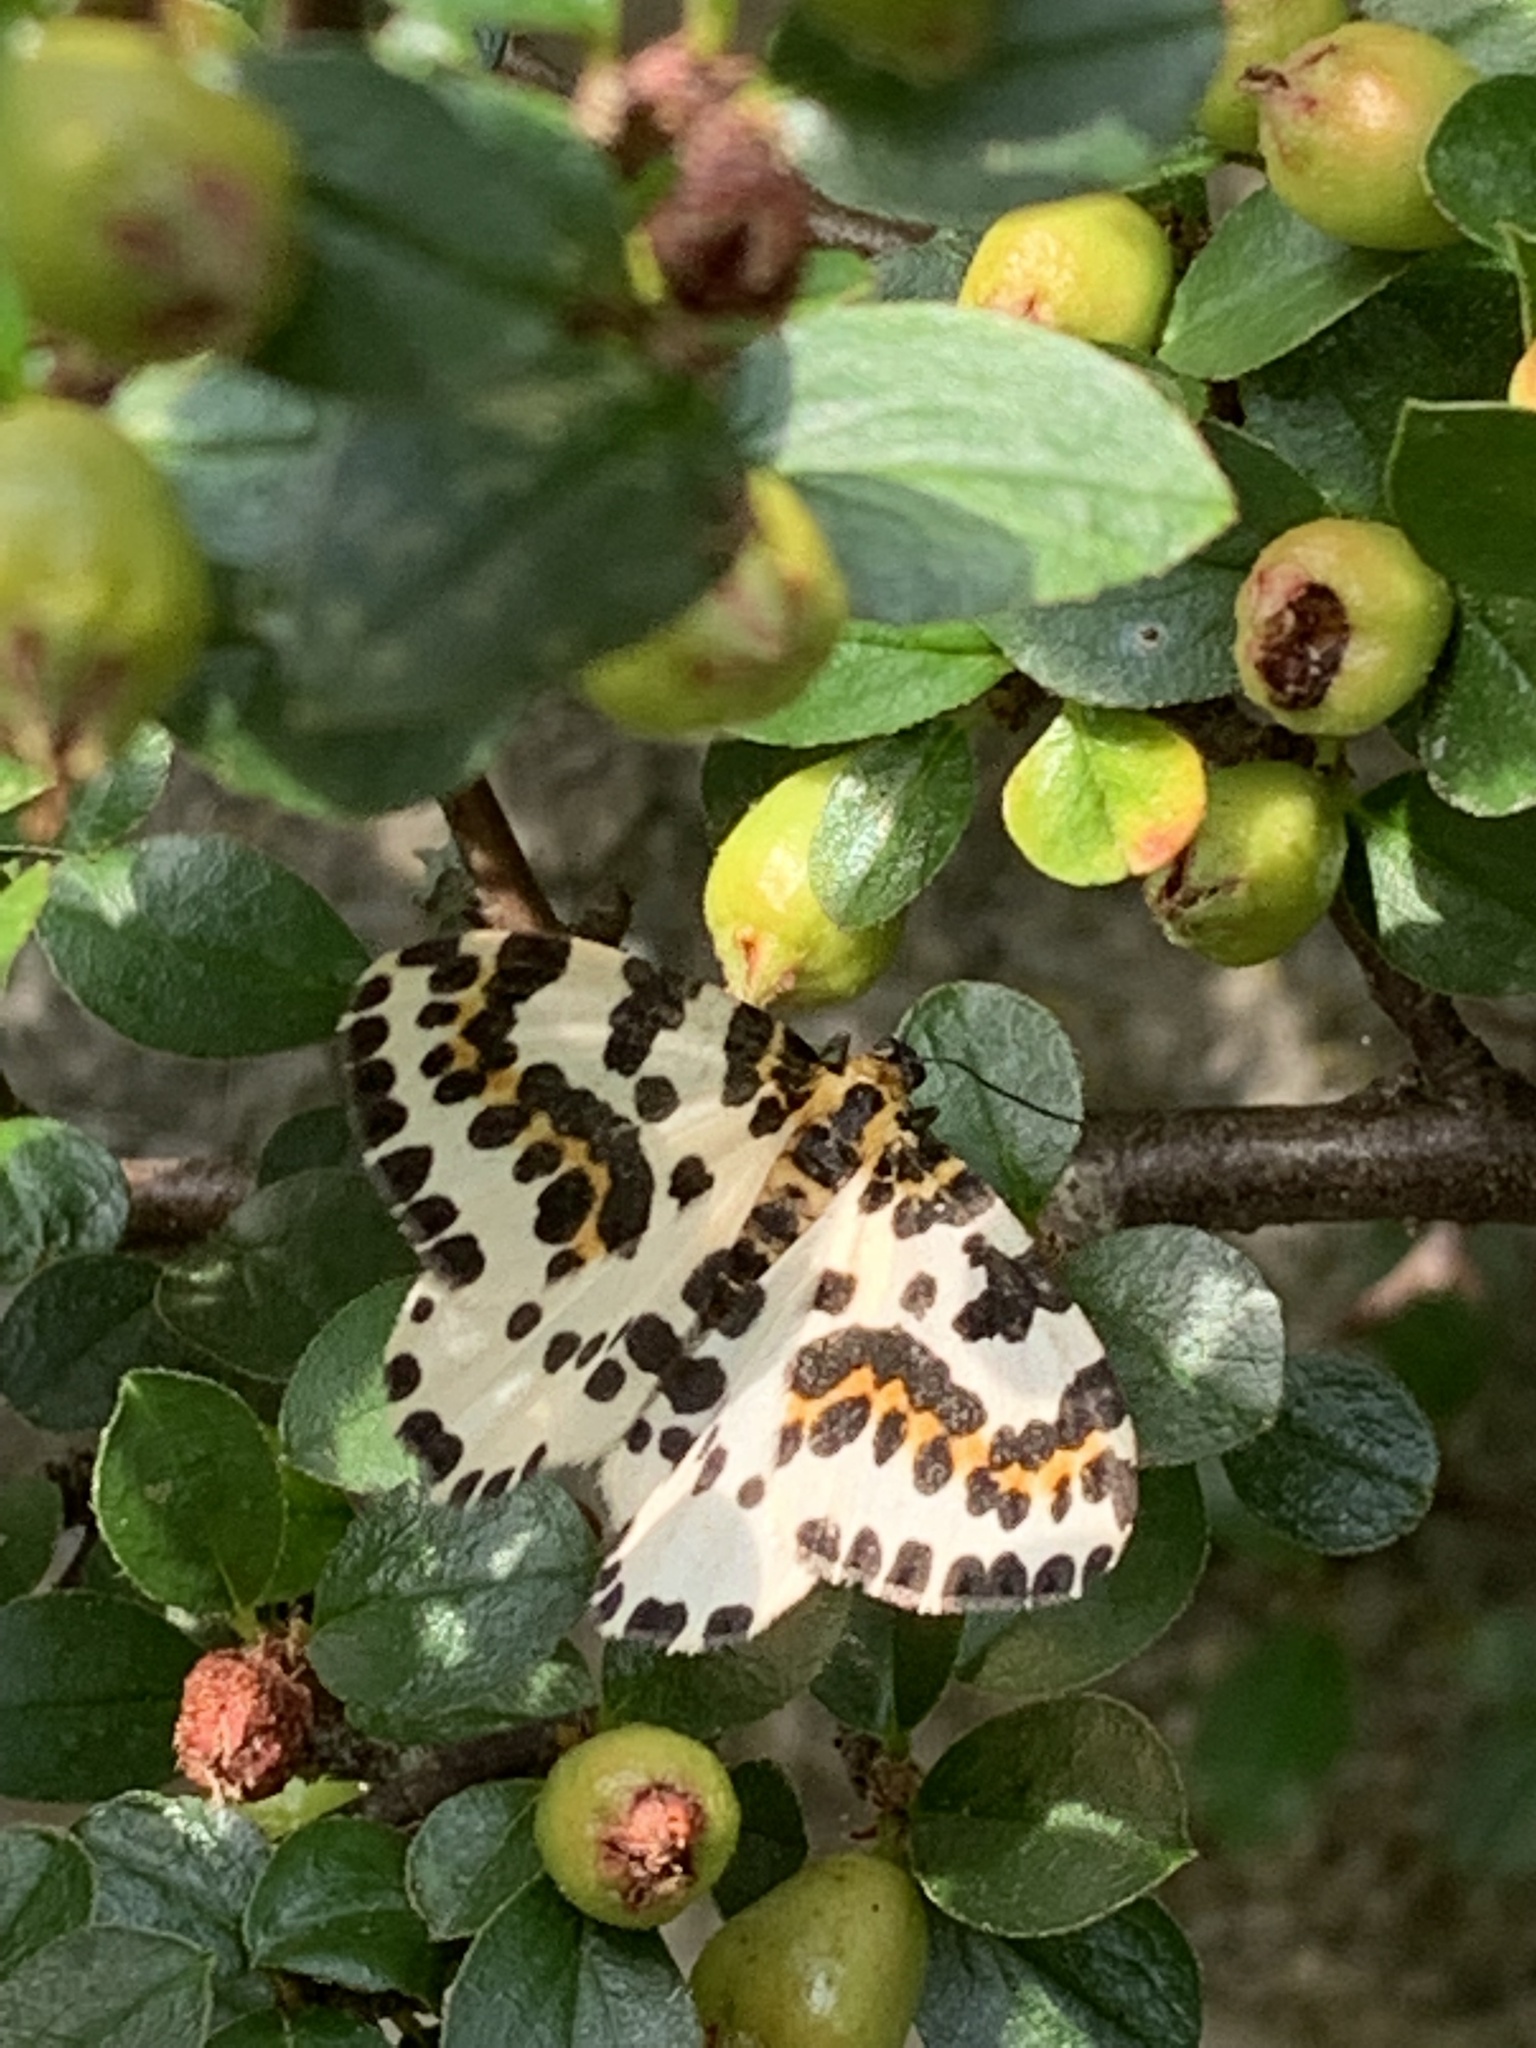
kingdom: Animalia
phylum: Arthropoda
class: Insecta
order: Lepidoptera
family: Geometridae
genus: Abraxas
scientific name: Abraxas grossulariata
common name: Magpie
